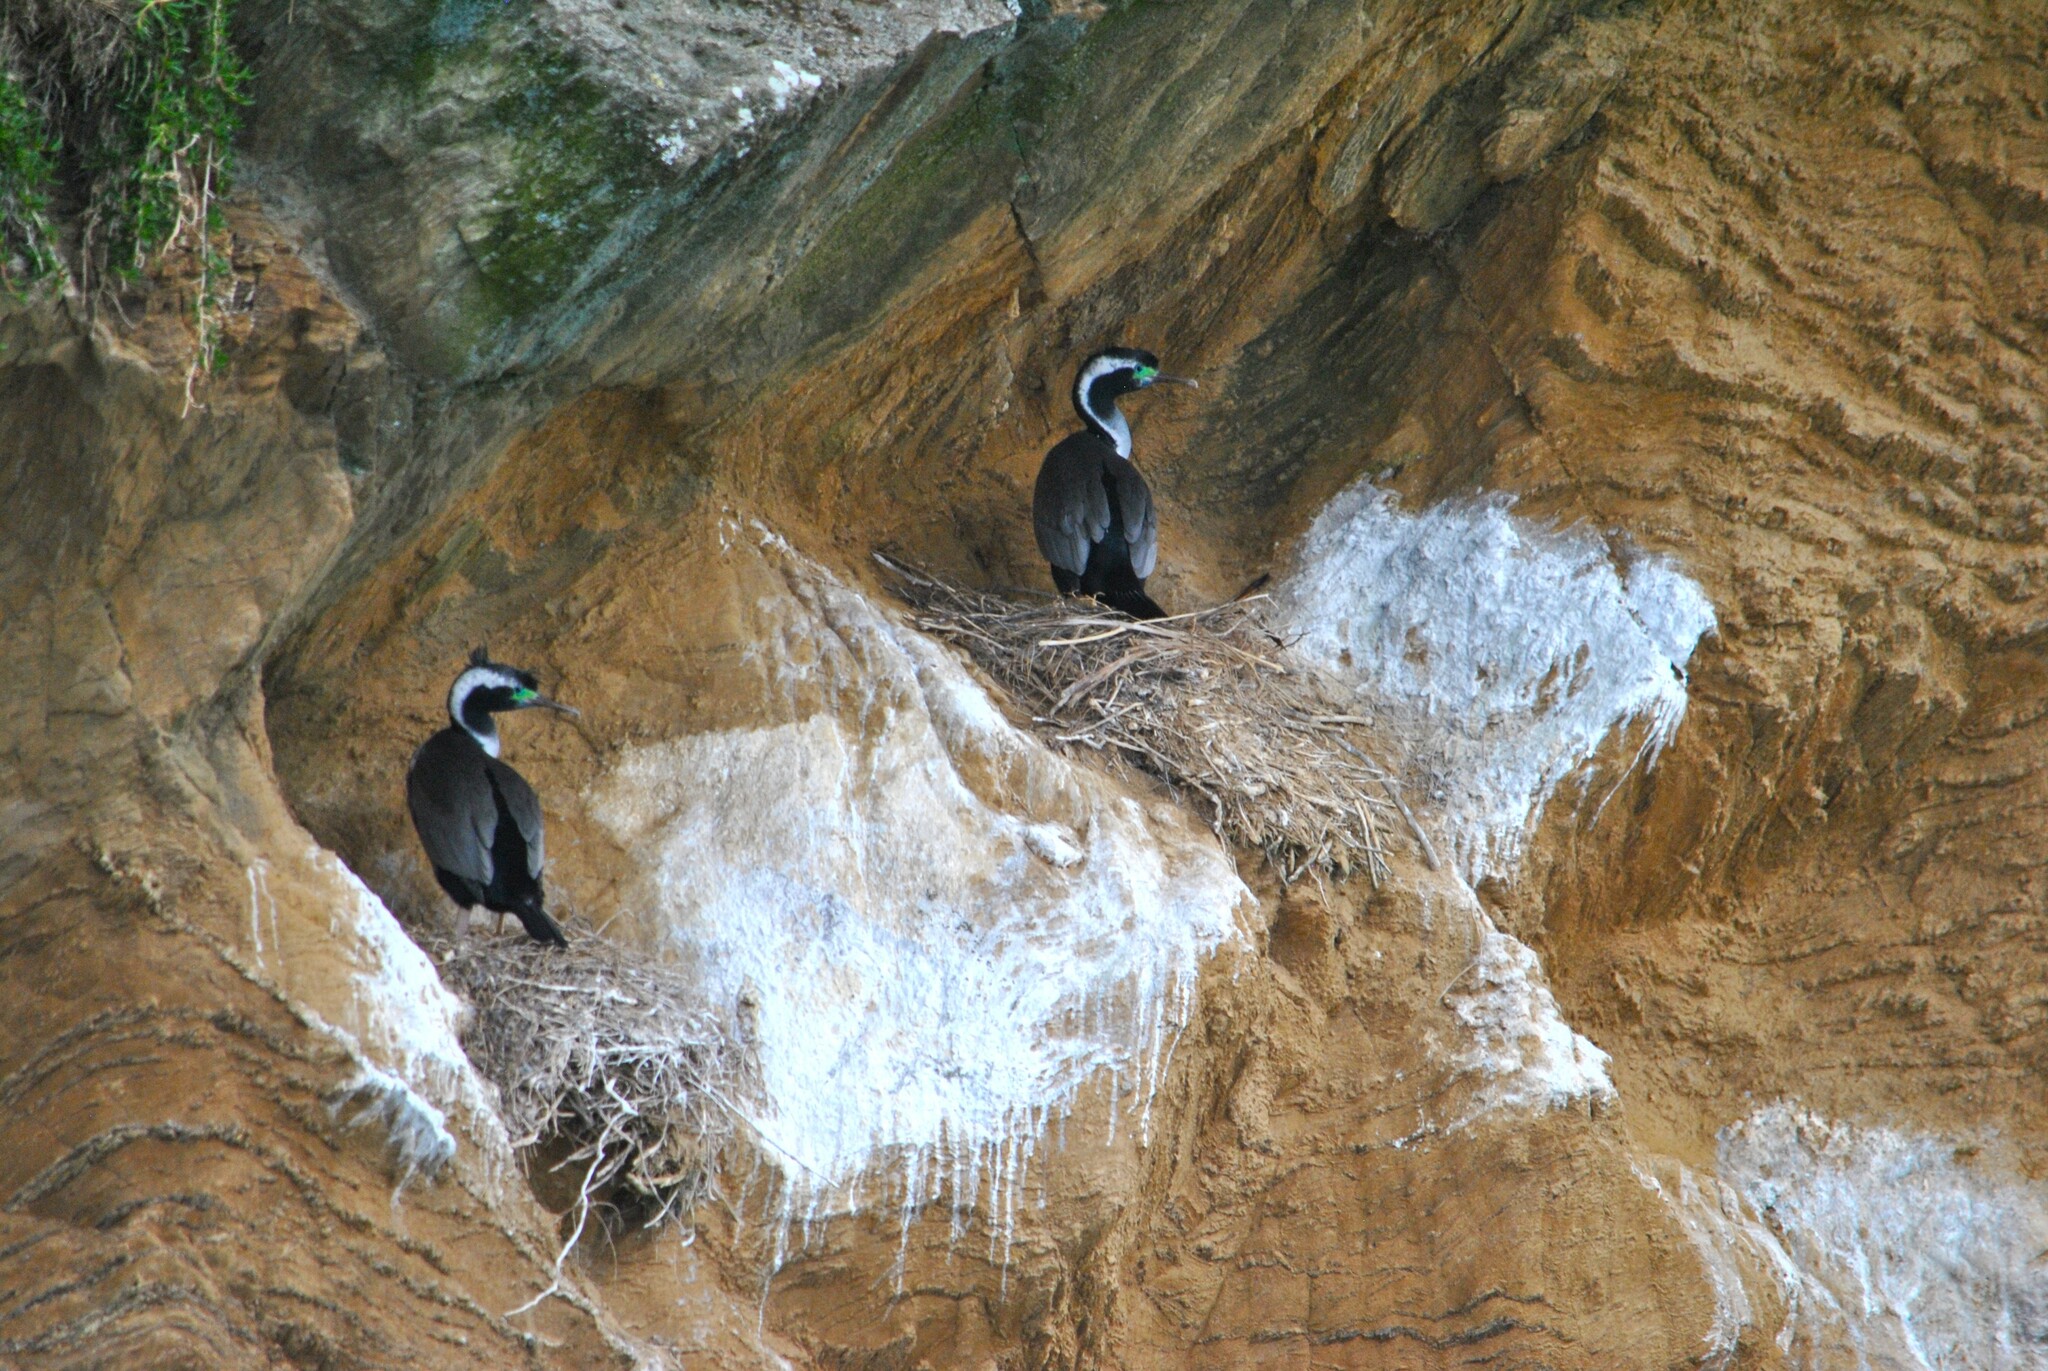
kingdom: Animalia
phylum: Chordata
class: Aves
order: Suliformes
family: Phalacrocoracidae
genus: Phalacrocorax
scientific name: Phalacrocorax punctatus
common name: Spotted shag
